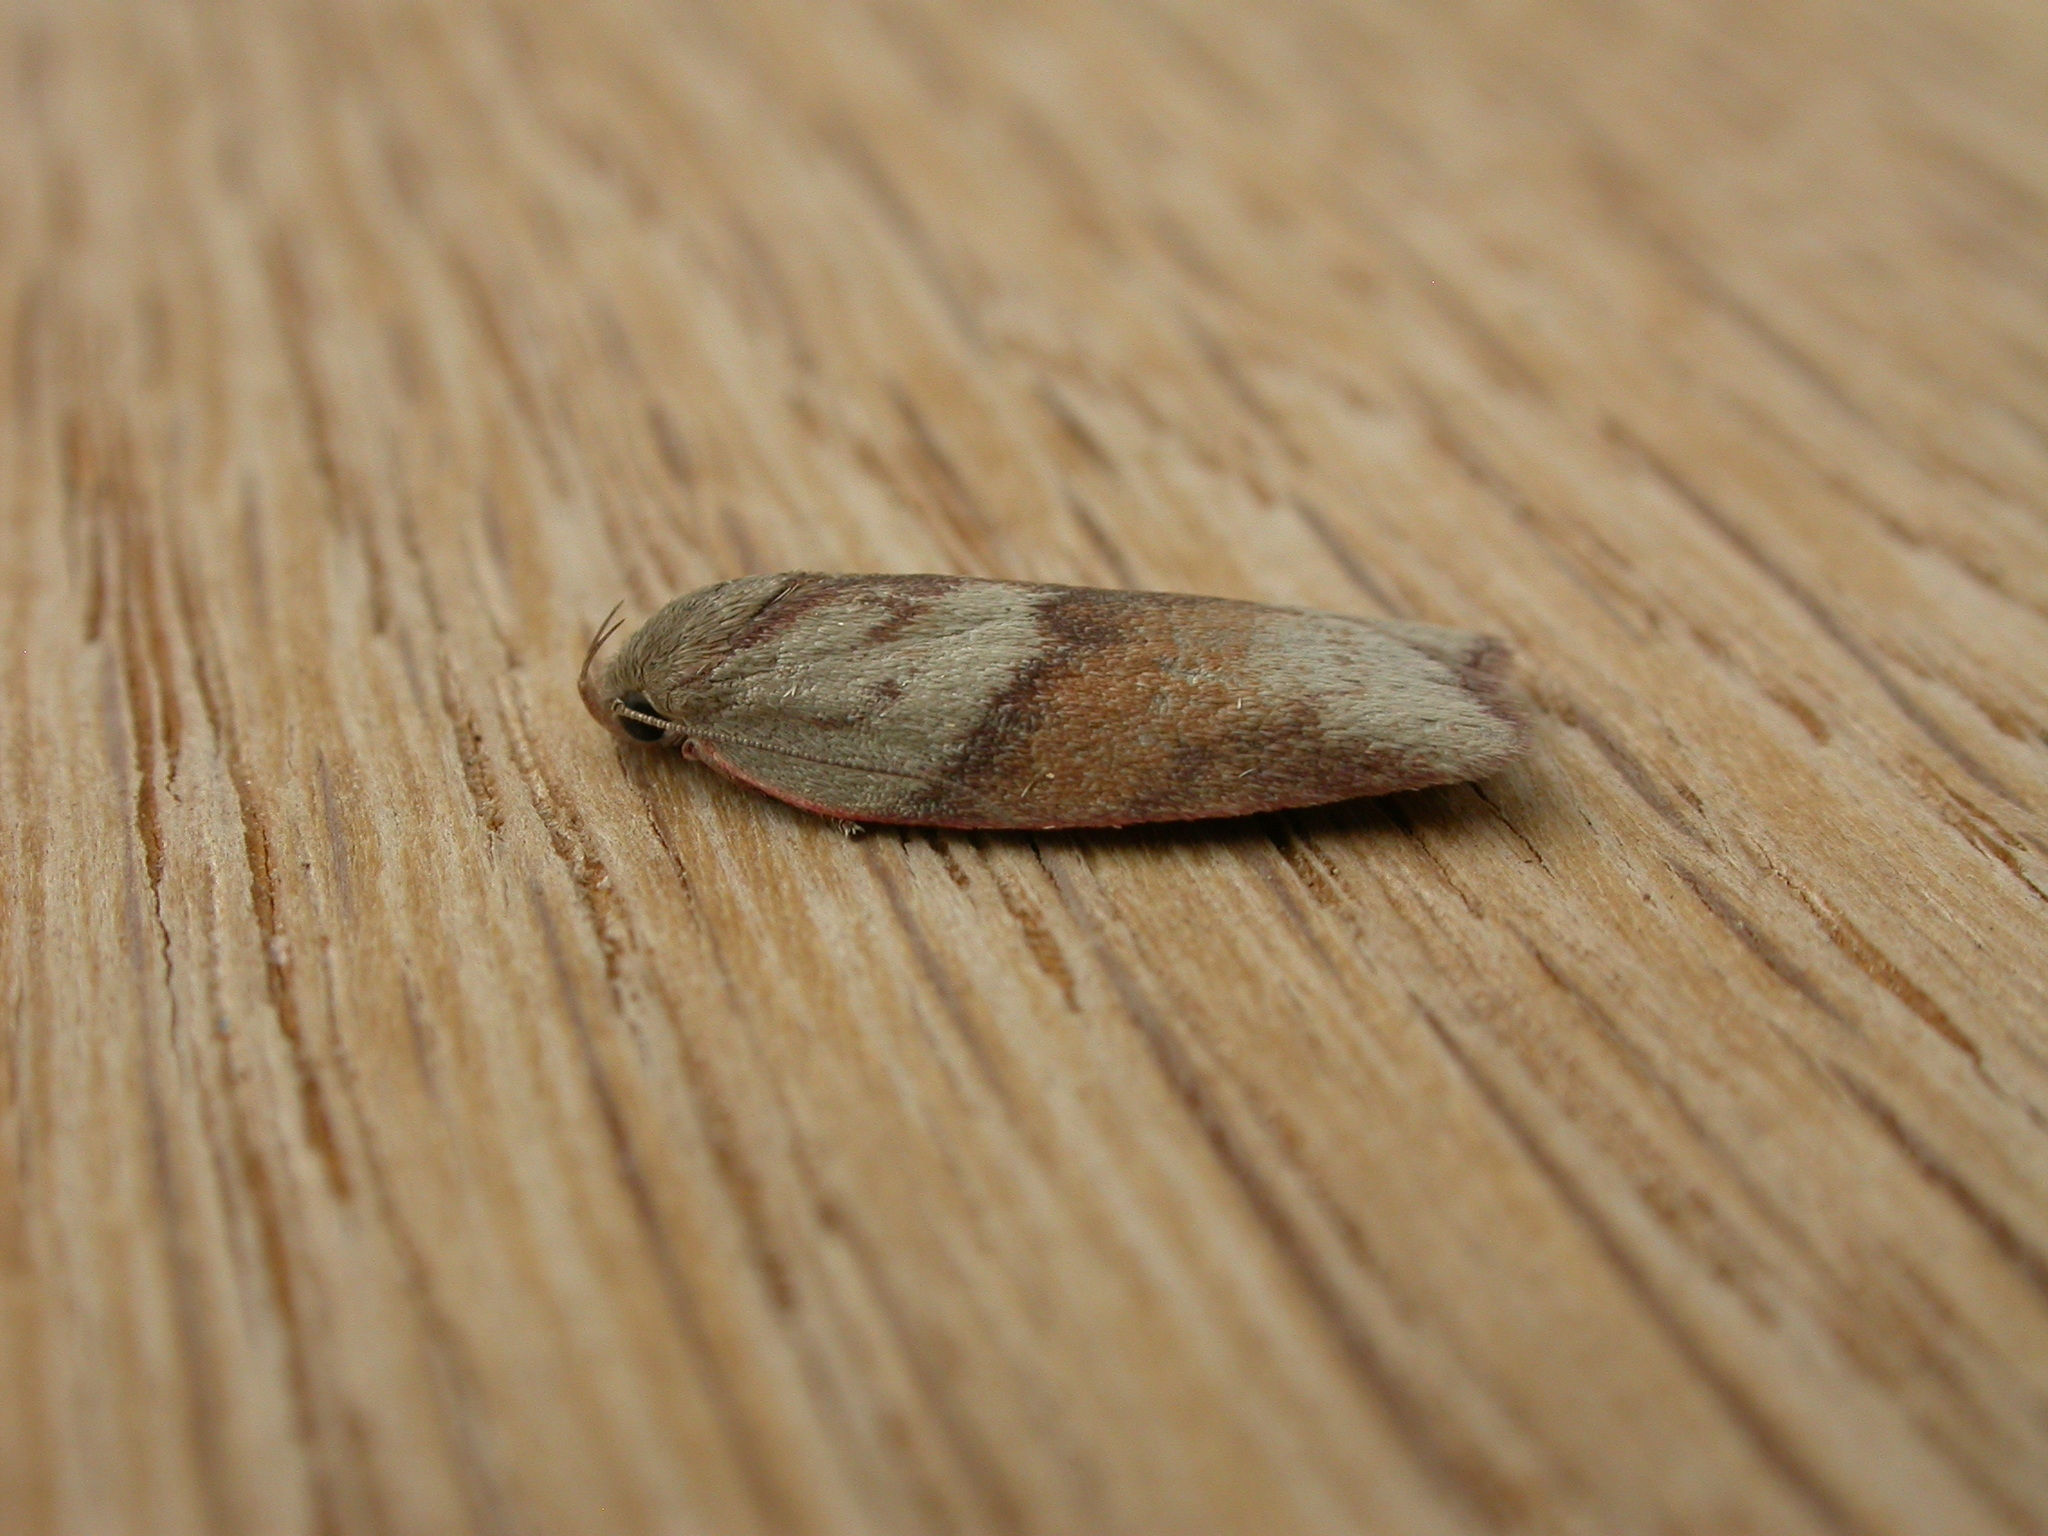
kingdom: Animalia
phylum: Arthropoda
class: Insecta
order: Lepidoptera
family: Oecophoridae
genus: Euchaetis
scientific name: Euchaetis crypsichroa
